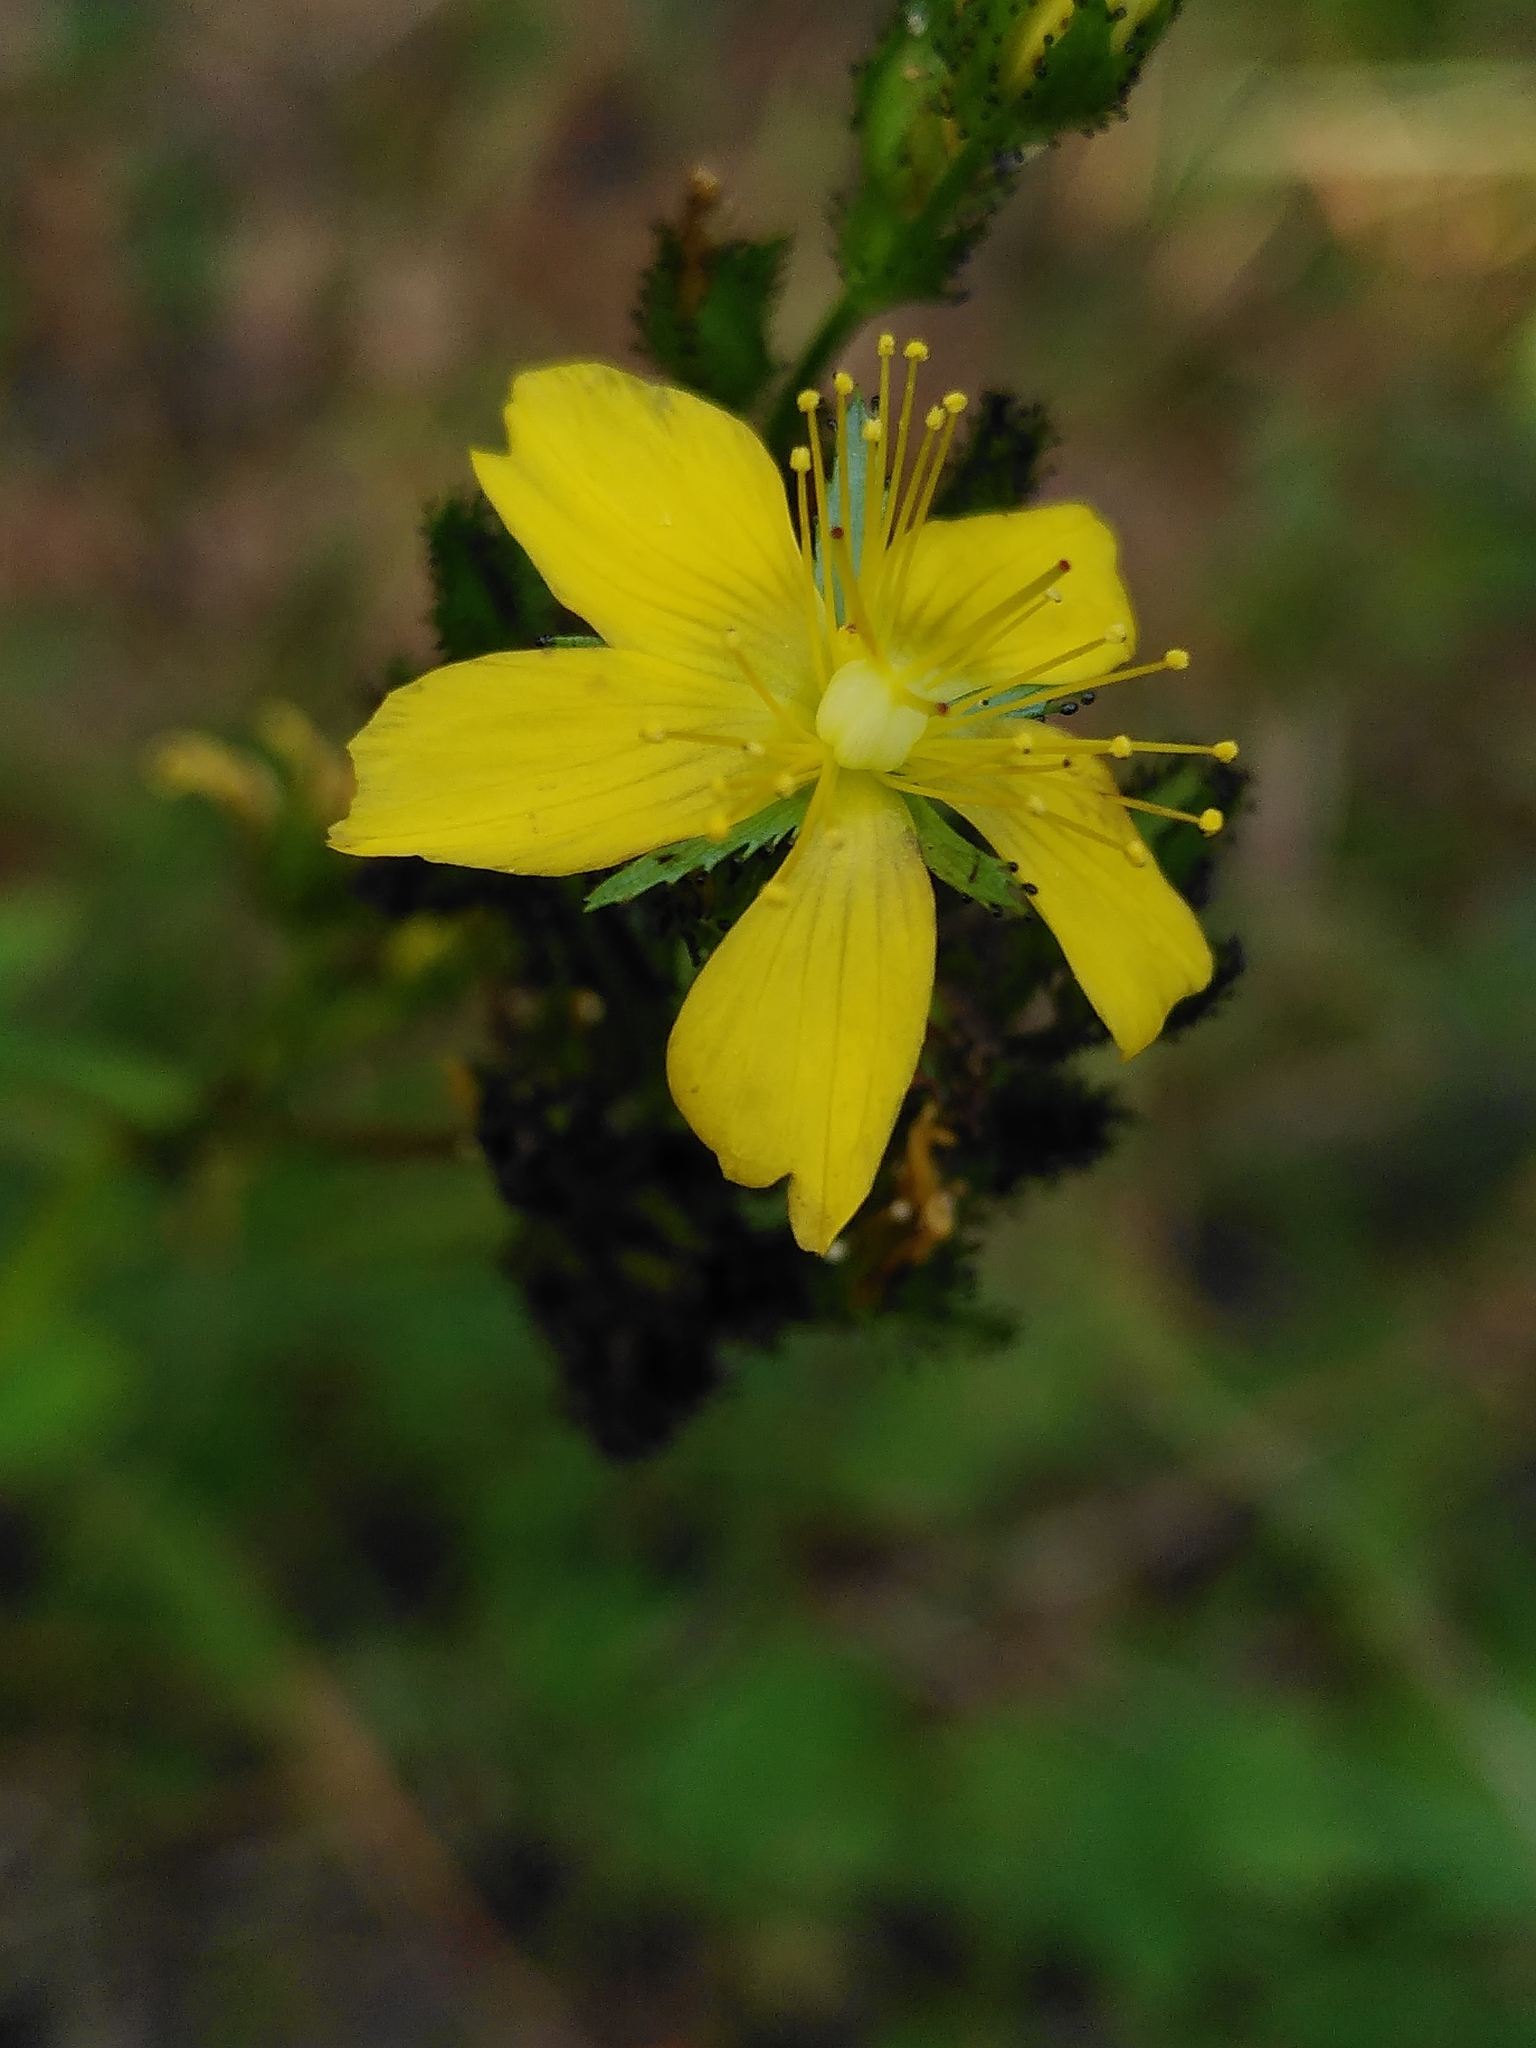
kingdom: Plantae
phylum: Tracheophyta
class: Magnoliopsida
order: Malpighiales
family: Hypericaceae
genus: Hypericum
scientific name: Hypericum montanum
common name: Pale st. john's-wort
